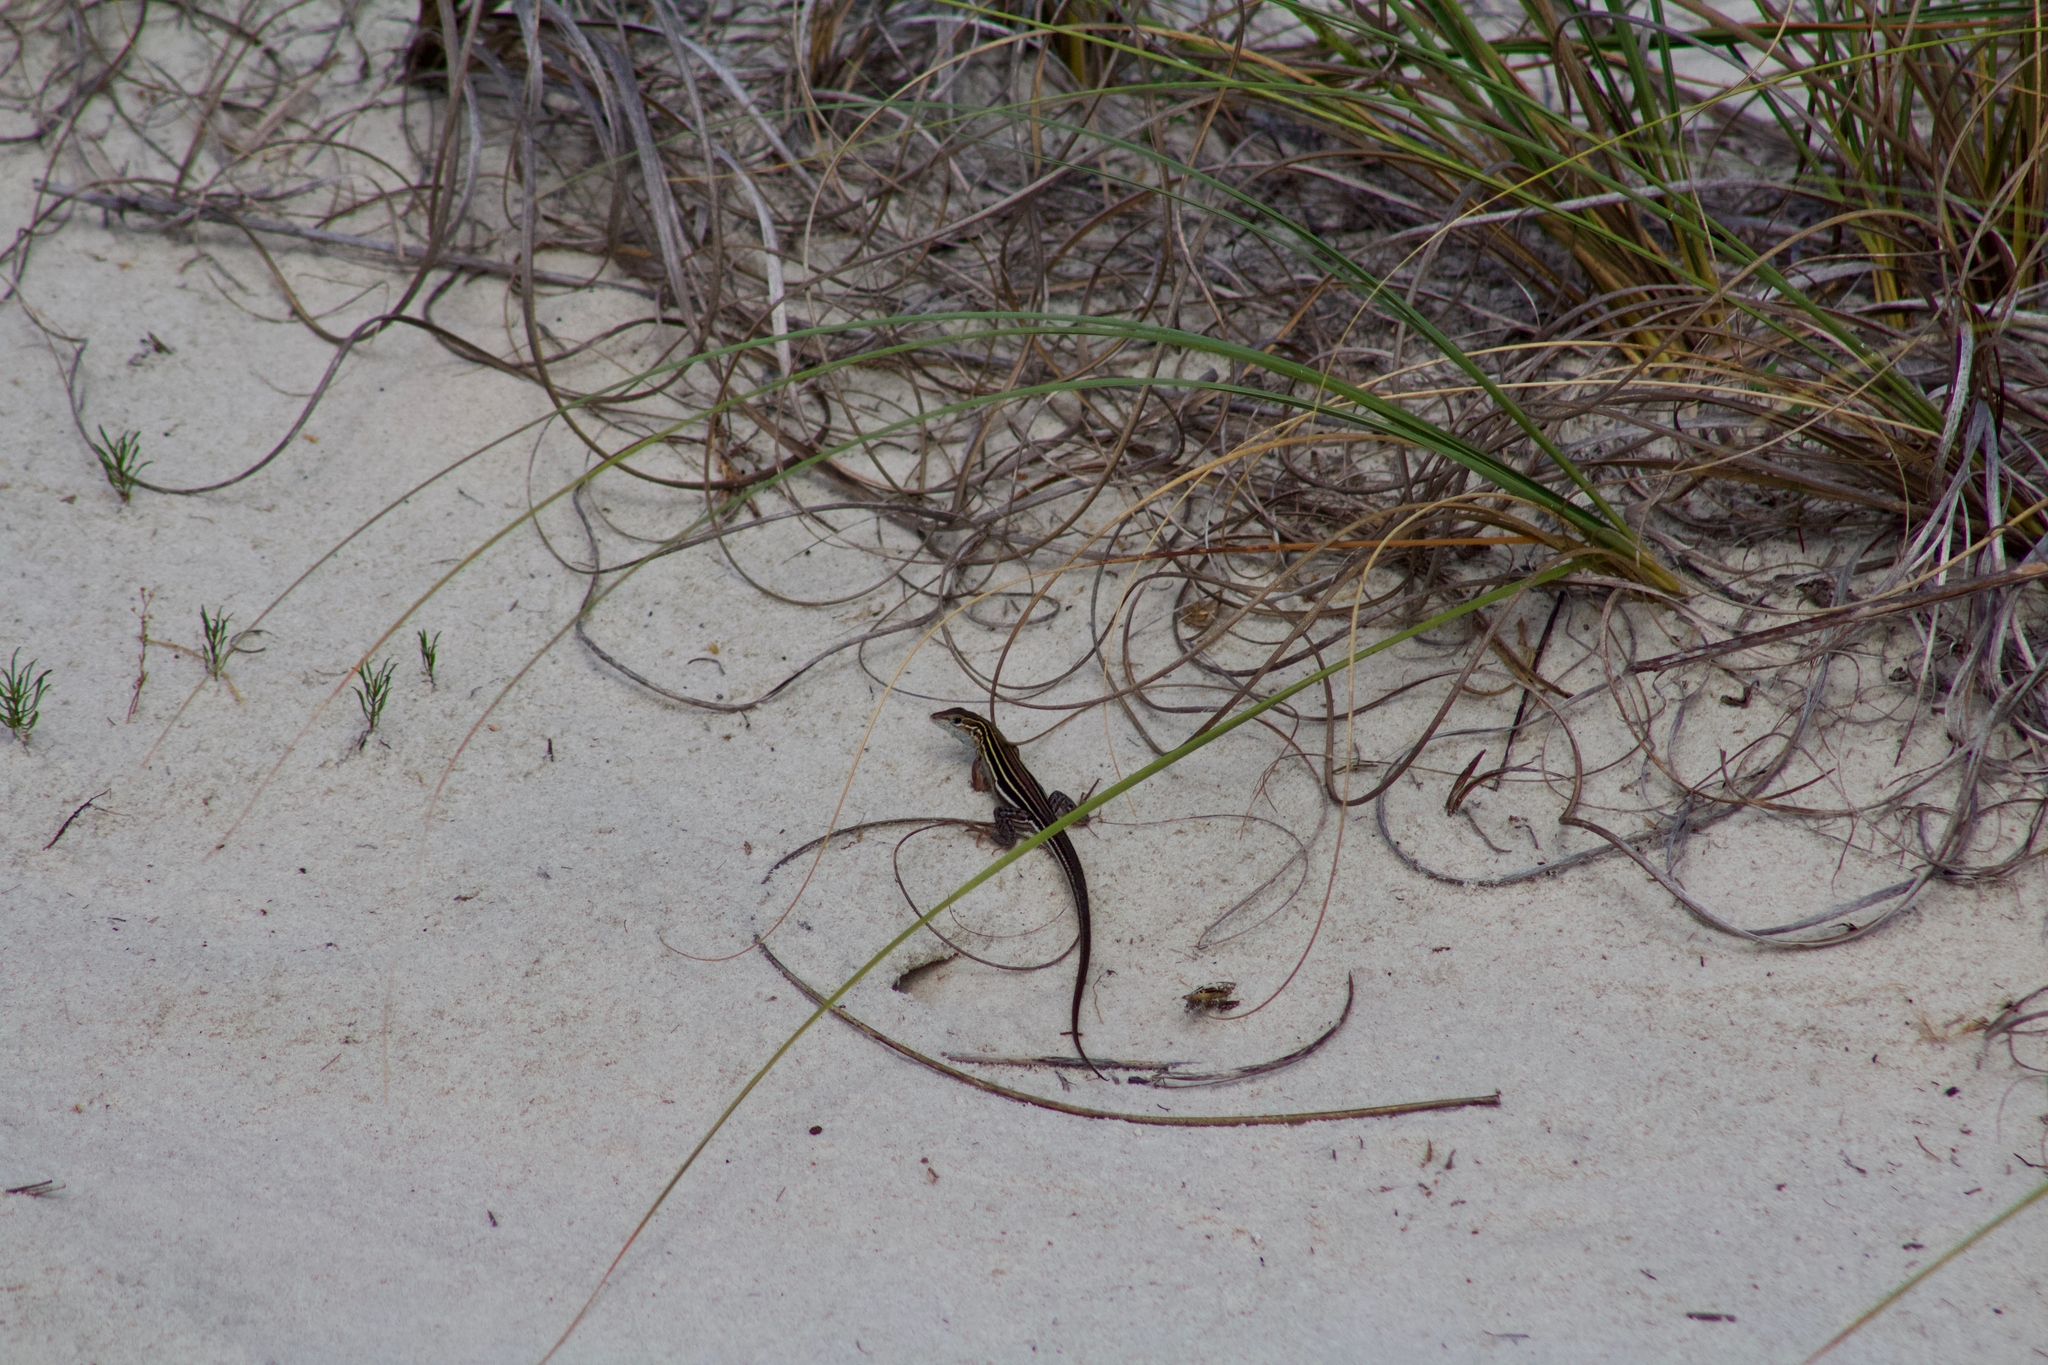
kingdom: Animalia
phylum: Chordata
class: Squamata
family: Teiidae
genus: Aspidoscelis
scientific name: Aspidoscelis sexlineatus
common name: Six-lined racerunner
